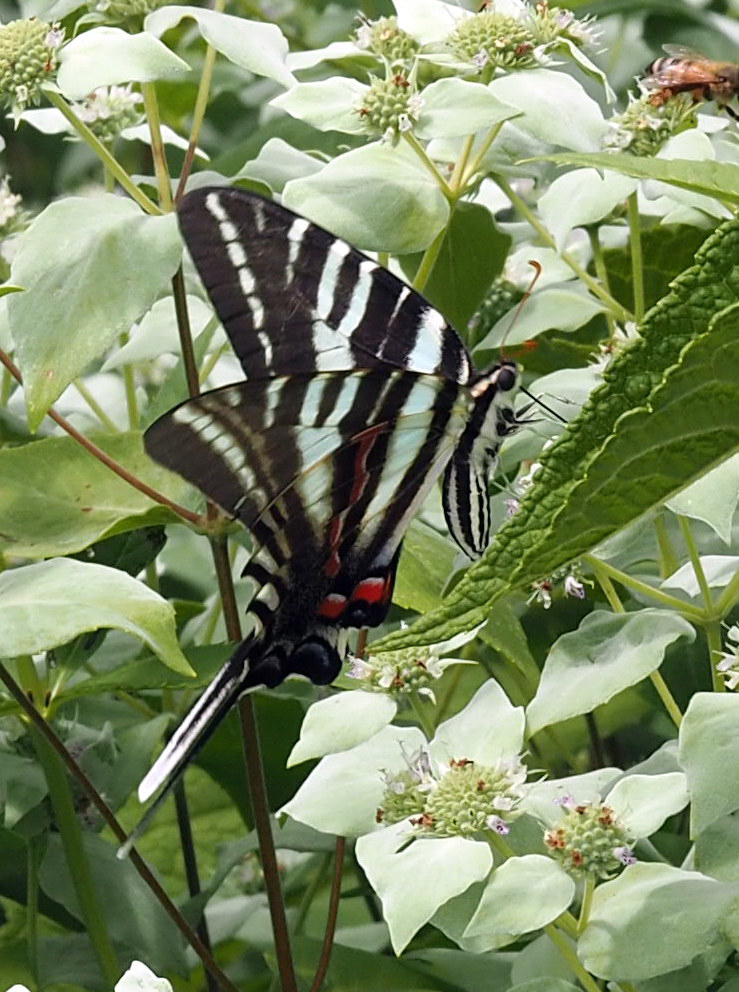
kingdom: Animalia
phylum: Arthropoda
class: Insecta
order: Lepidoptera
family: Papilionidae
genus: Protographium
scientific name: Protographium marcellus
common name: Zebra swallowtail
